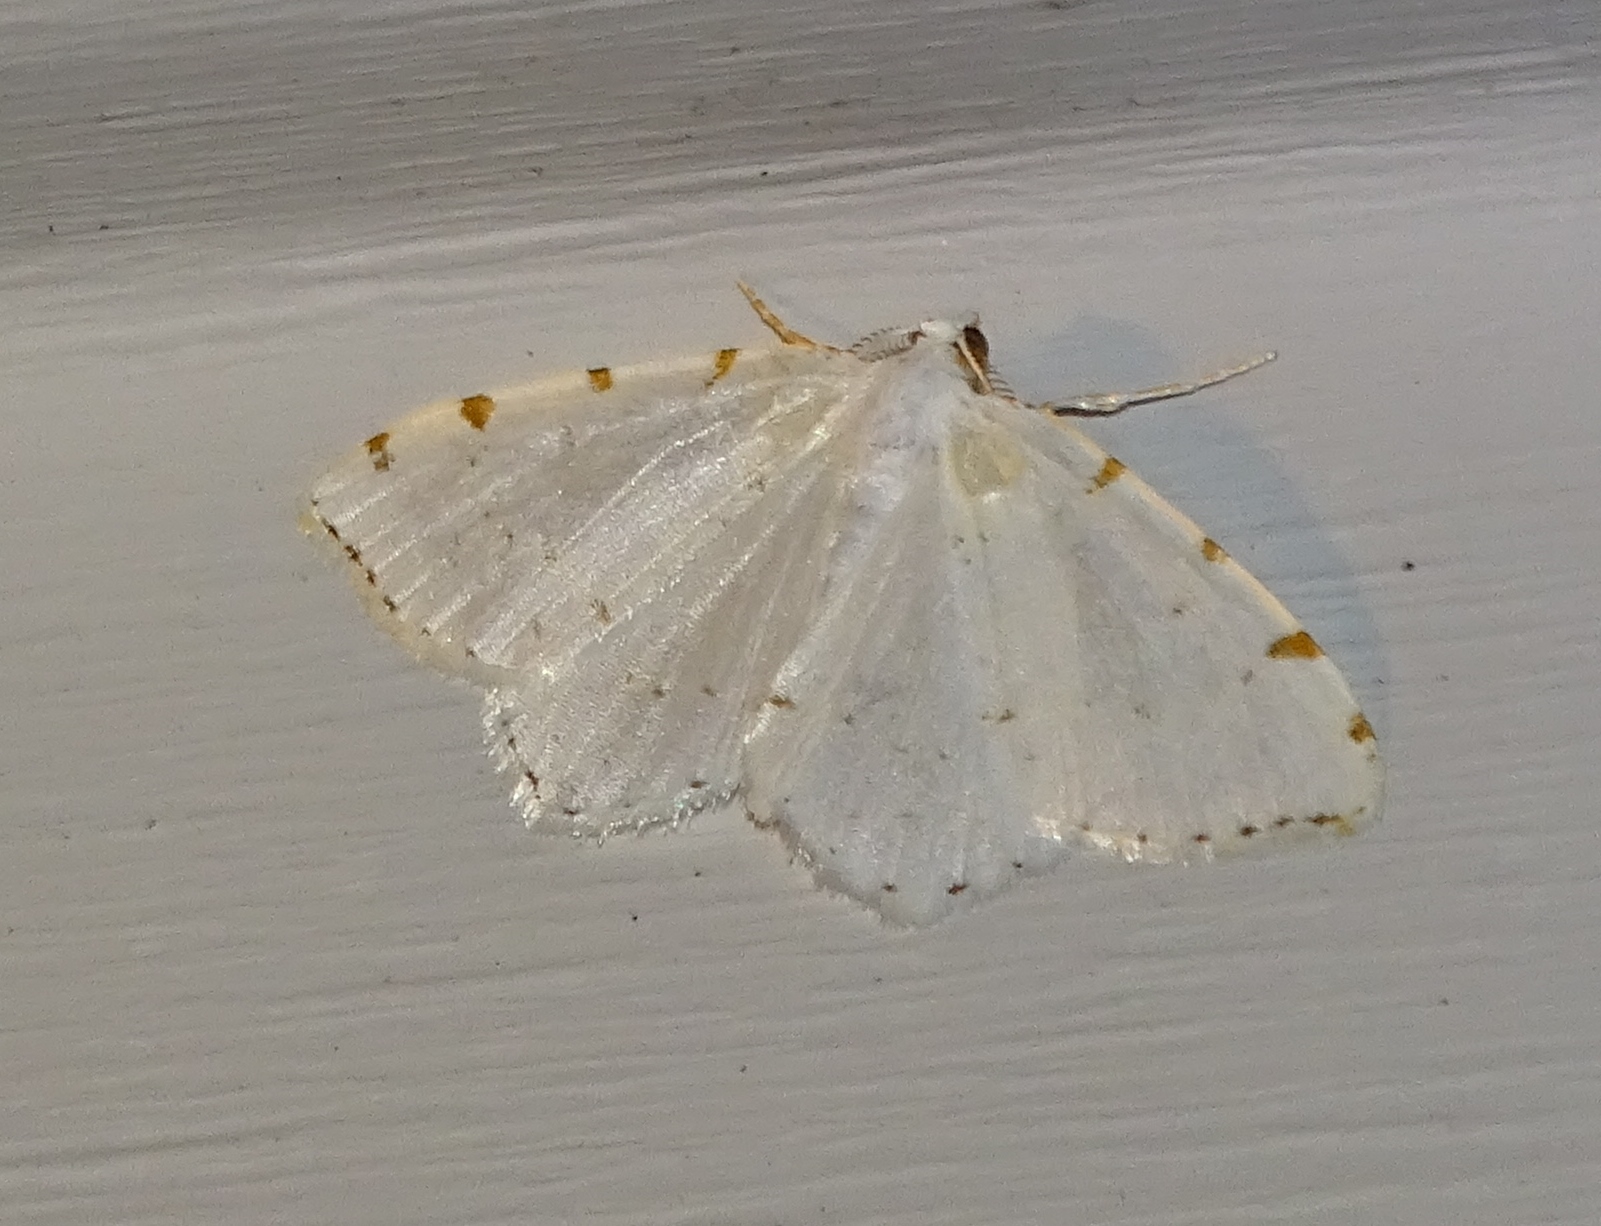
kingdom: Animalia
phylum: Arthropoda
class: Insecta
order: Lepidoptera
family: Geometridae
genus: Macaria
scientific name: Macaria pustularia
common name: Lesser maple spanworm moth
